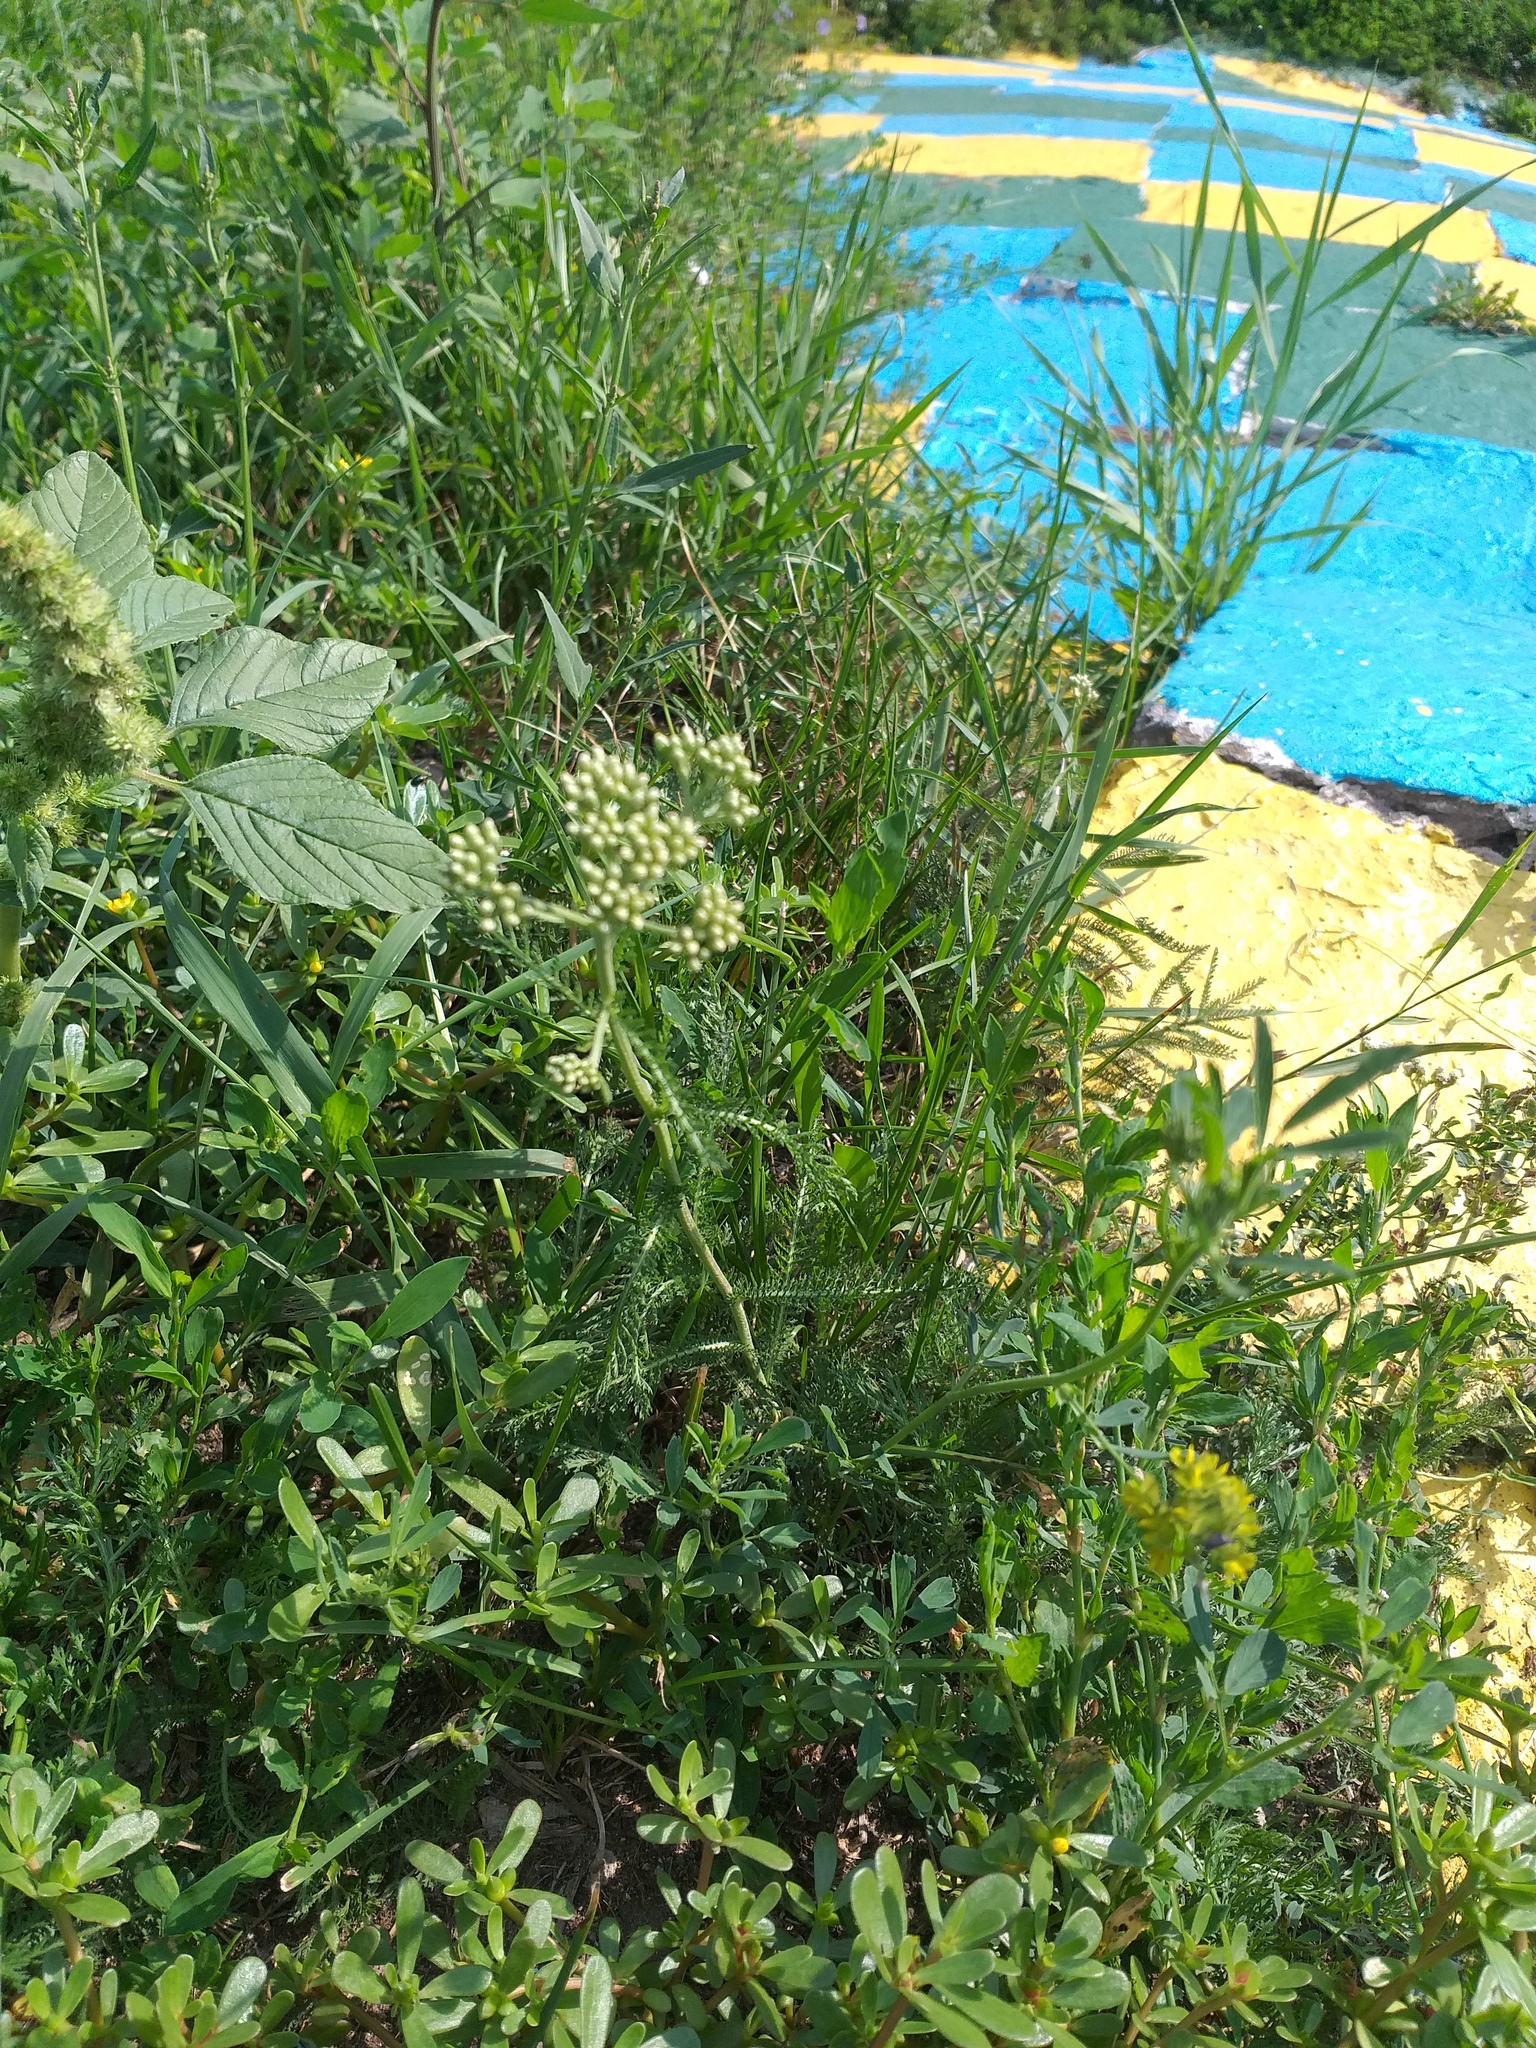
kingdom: Plantae
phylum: Tracheophyta
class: Magnoliopsida
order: Asterales
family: Asteraceae
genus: Achillea
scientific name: Achillea millefolium
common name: Yarrow
